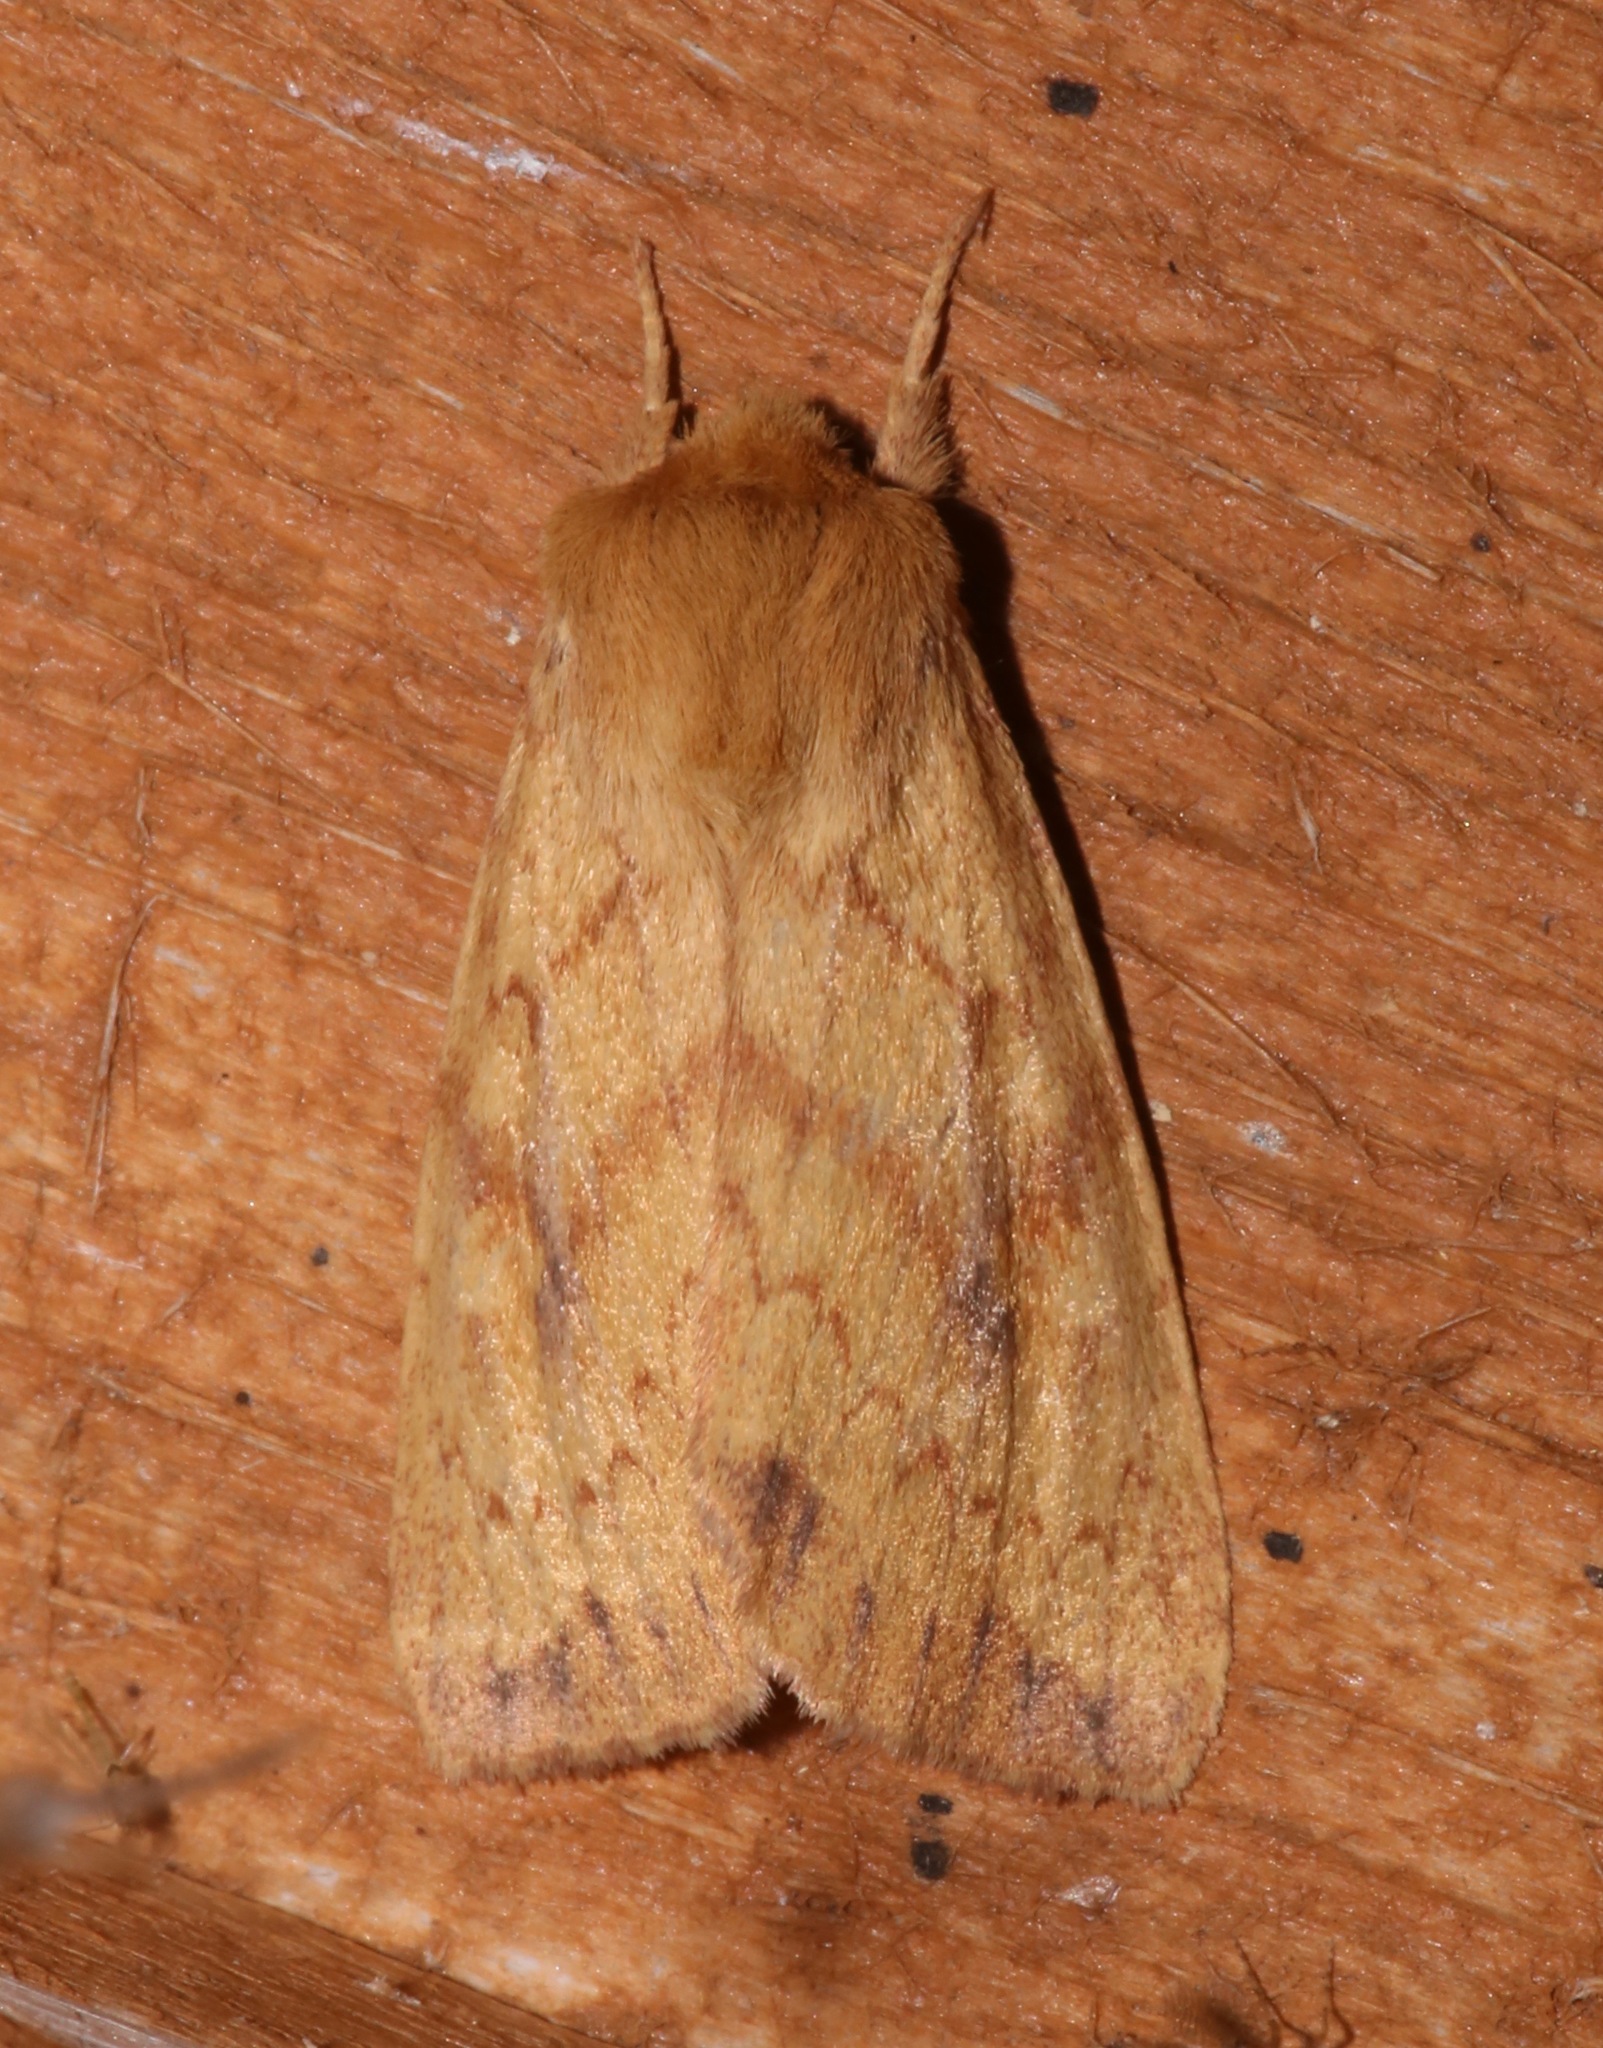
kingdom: Animalia
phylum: Arthropoda
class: Insecta
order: Lepidoptera
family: Noctuidae
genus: Bellura
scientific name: Bellura gortynoides
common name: White-tailed diver moth
